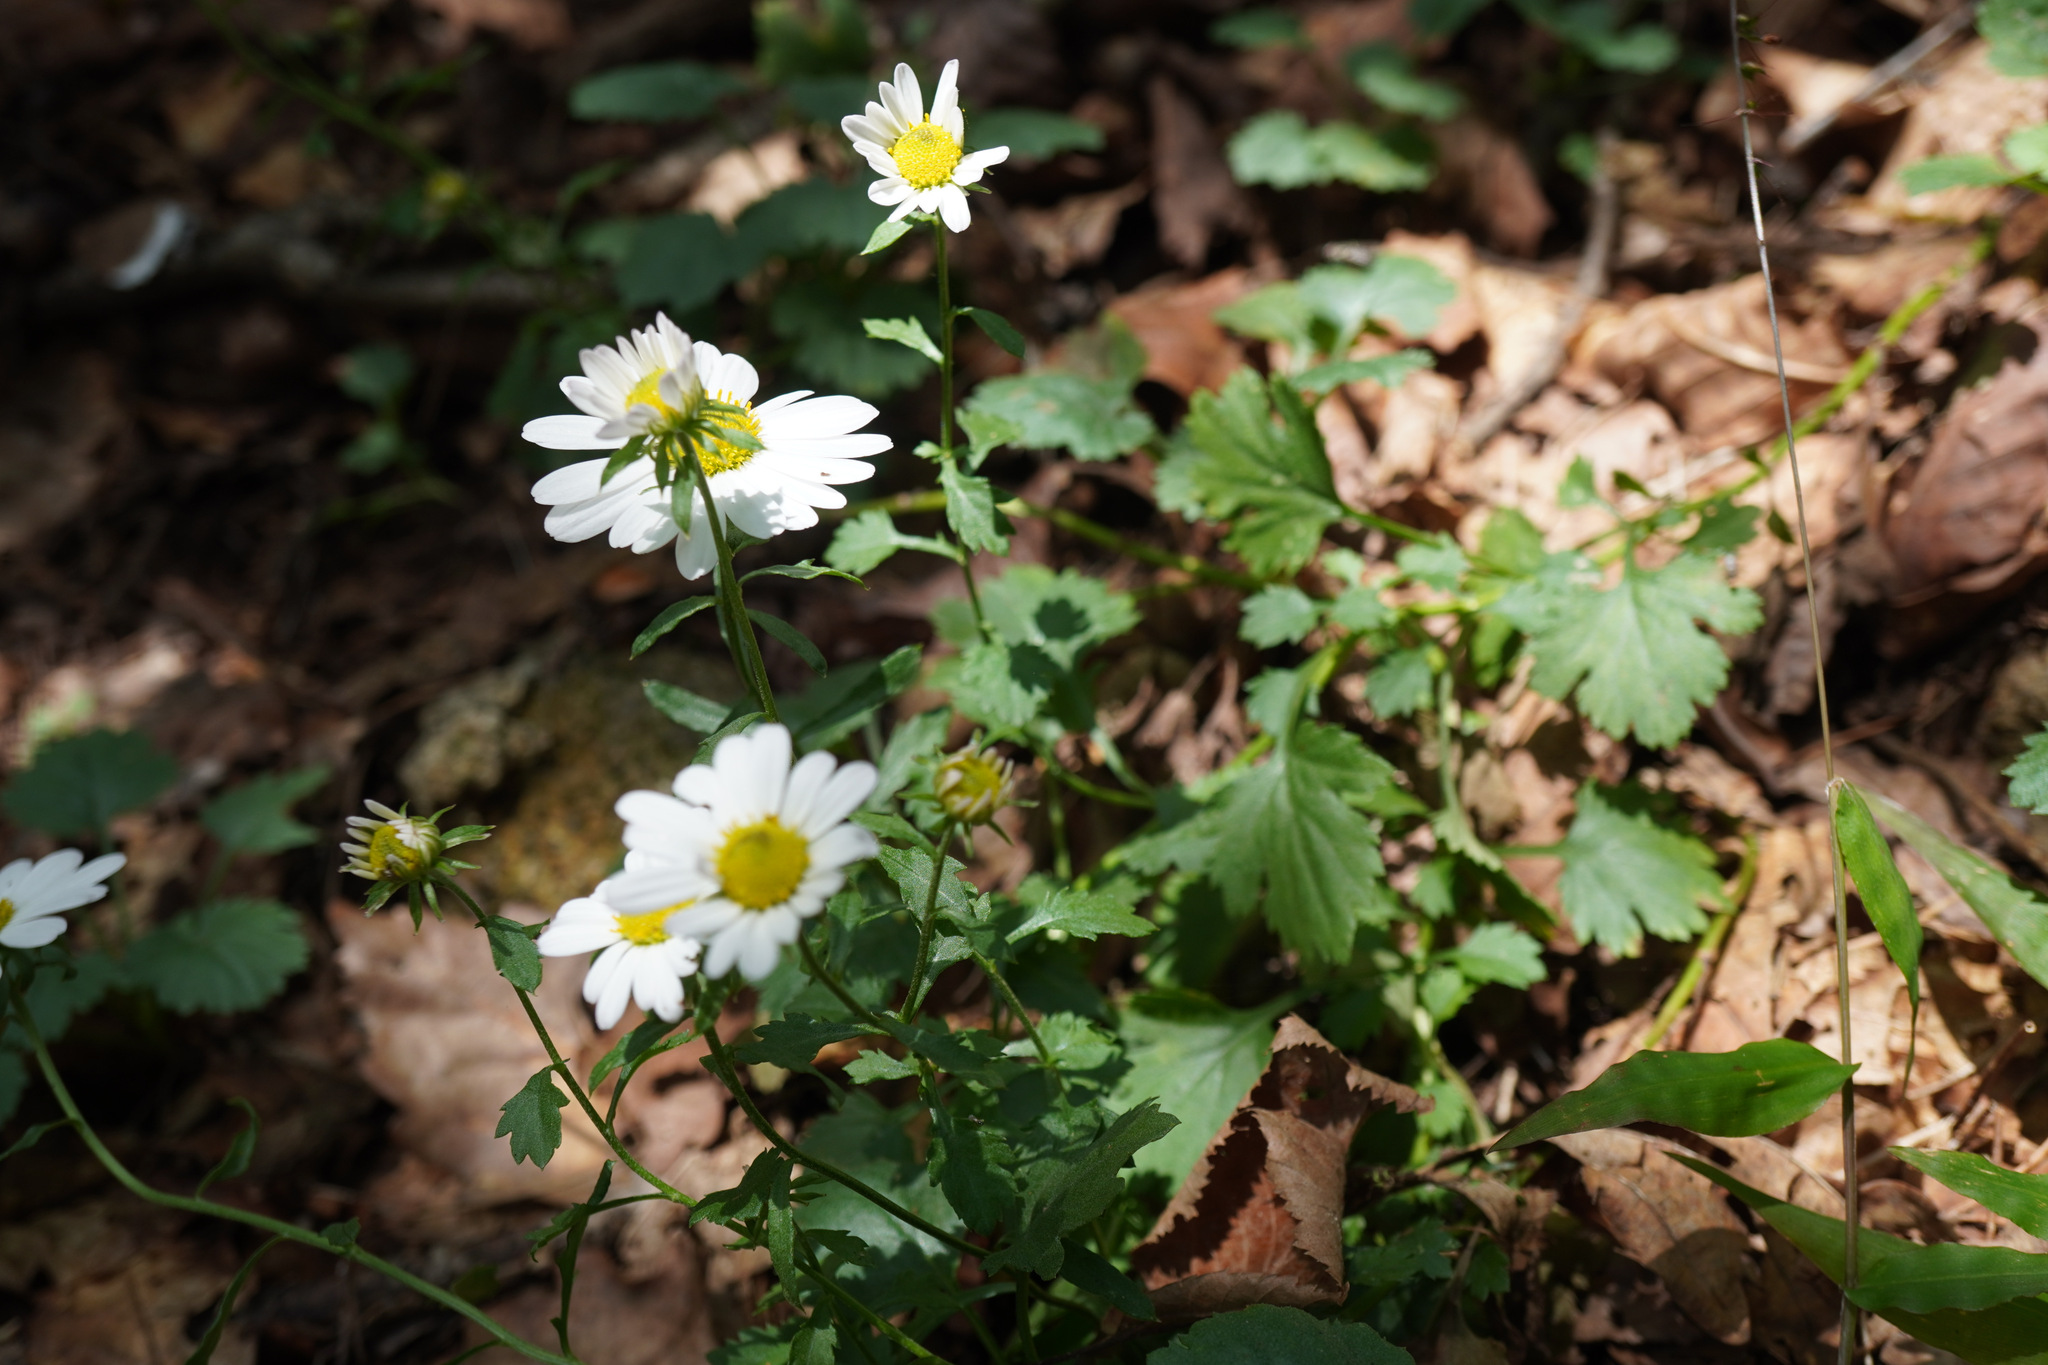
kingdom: Plantae
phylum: Tracheophyta
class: Magnoliopsida
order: Asterales
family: Asteraceae
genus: Chrysanthemum
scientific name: Chrysanthemum zawadzkii
